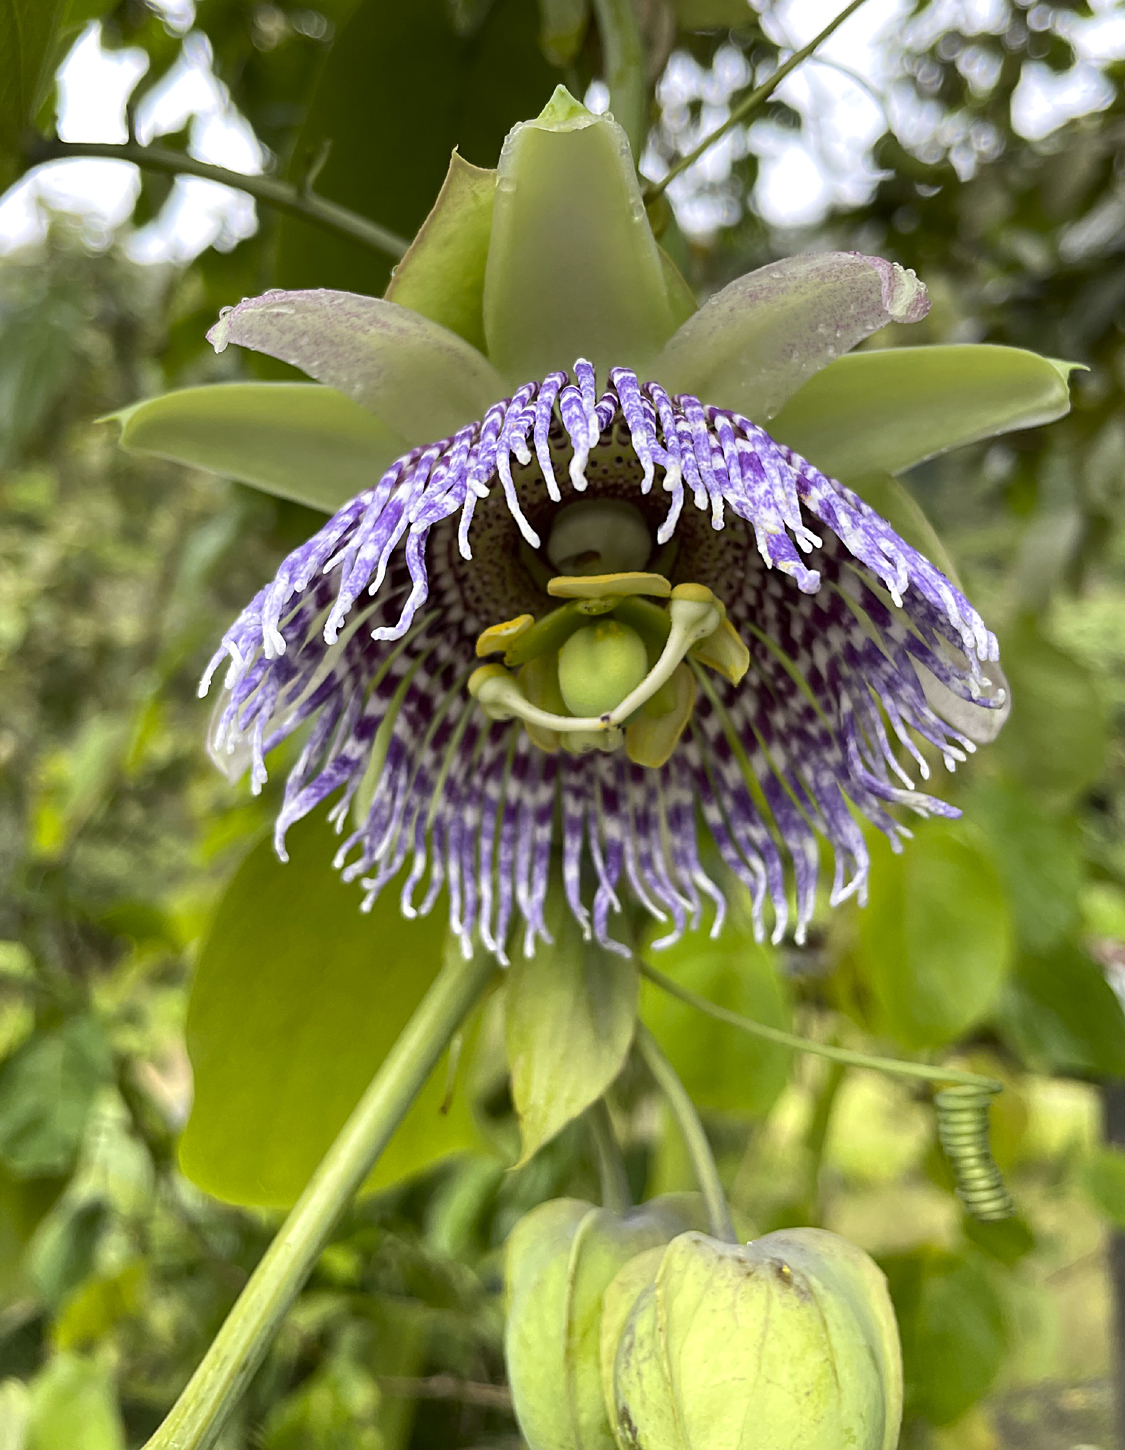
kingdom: Plantae
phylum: Tracheophyta
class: Magnoliopsida
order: Malpighiales
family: Passifloraceae
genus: Passiflora
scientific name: Passiflora ligularis
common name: Sweet granadilla
